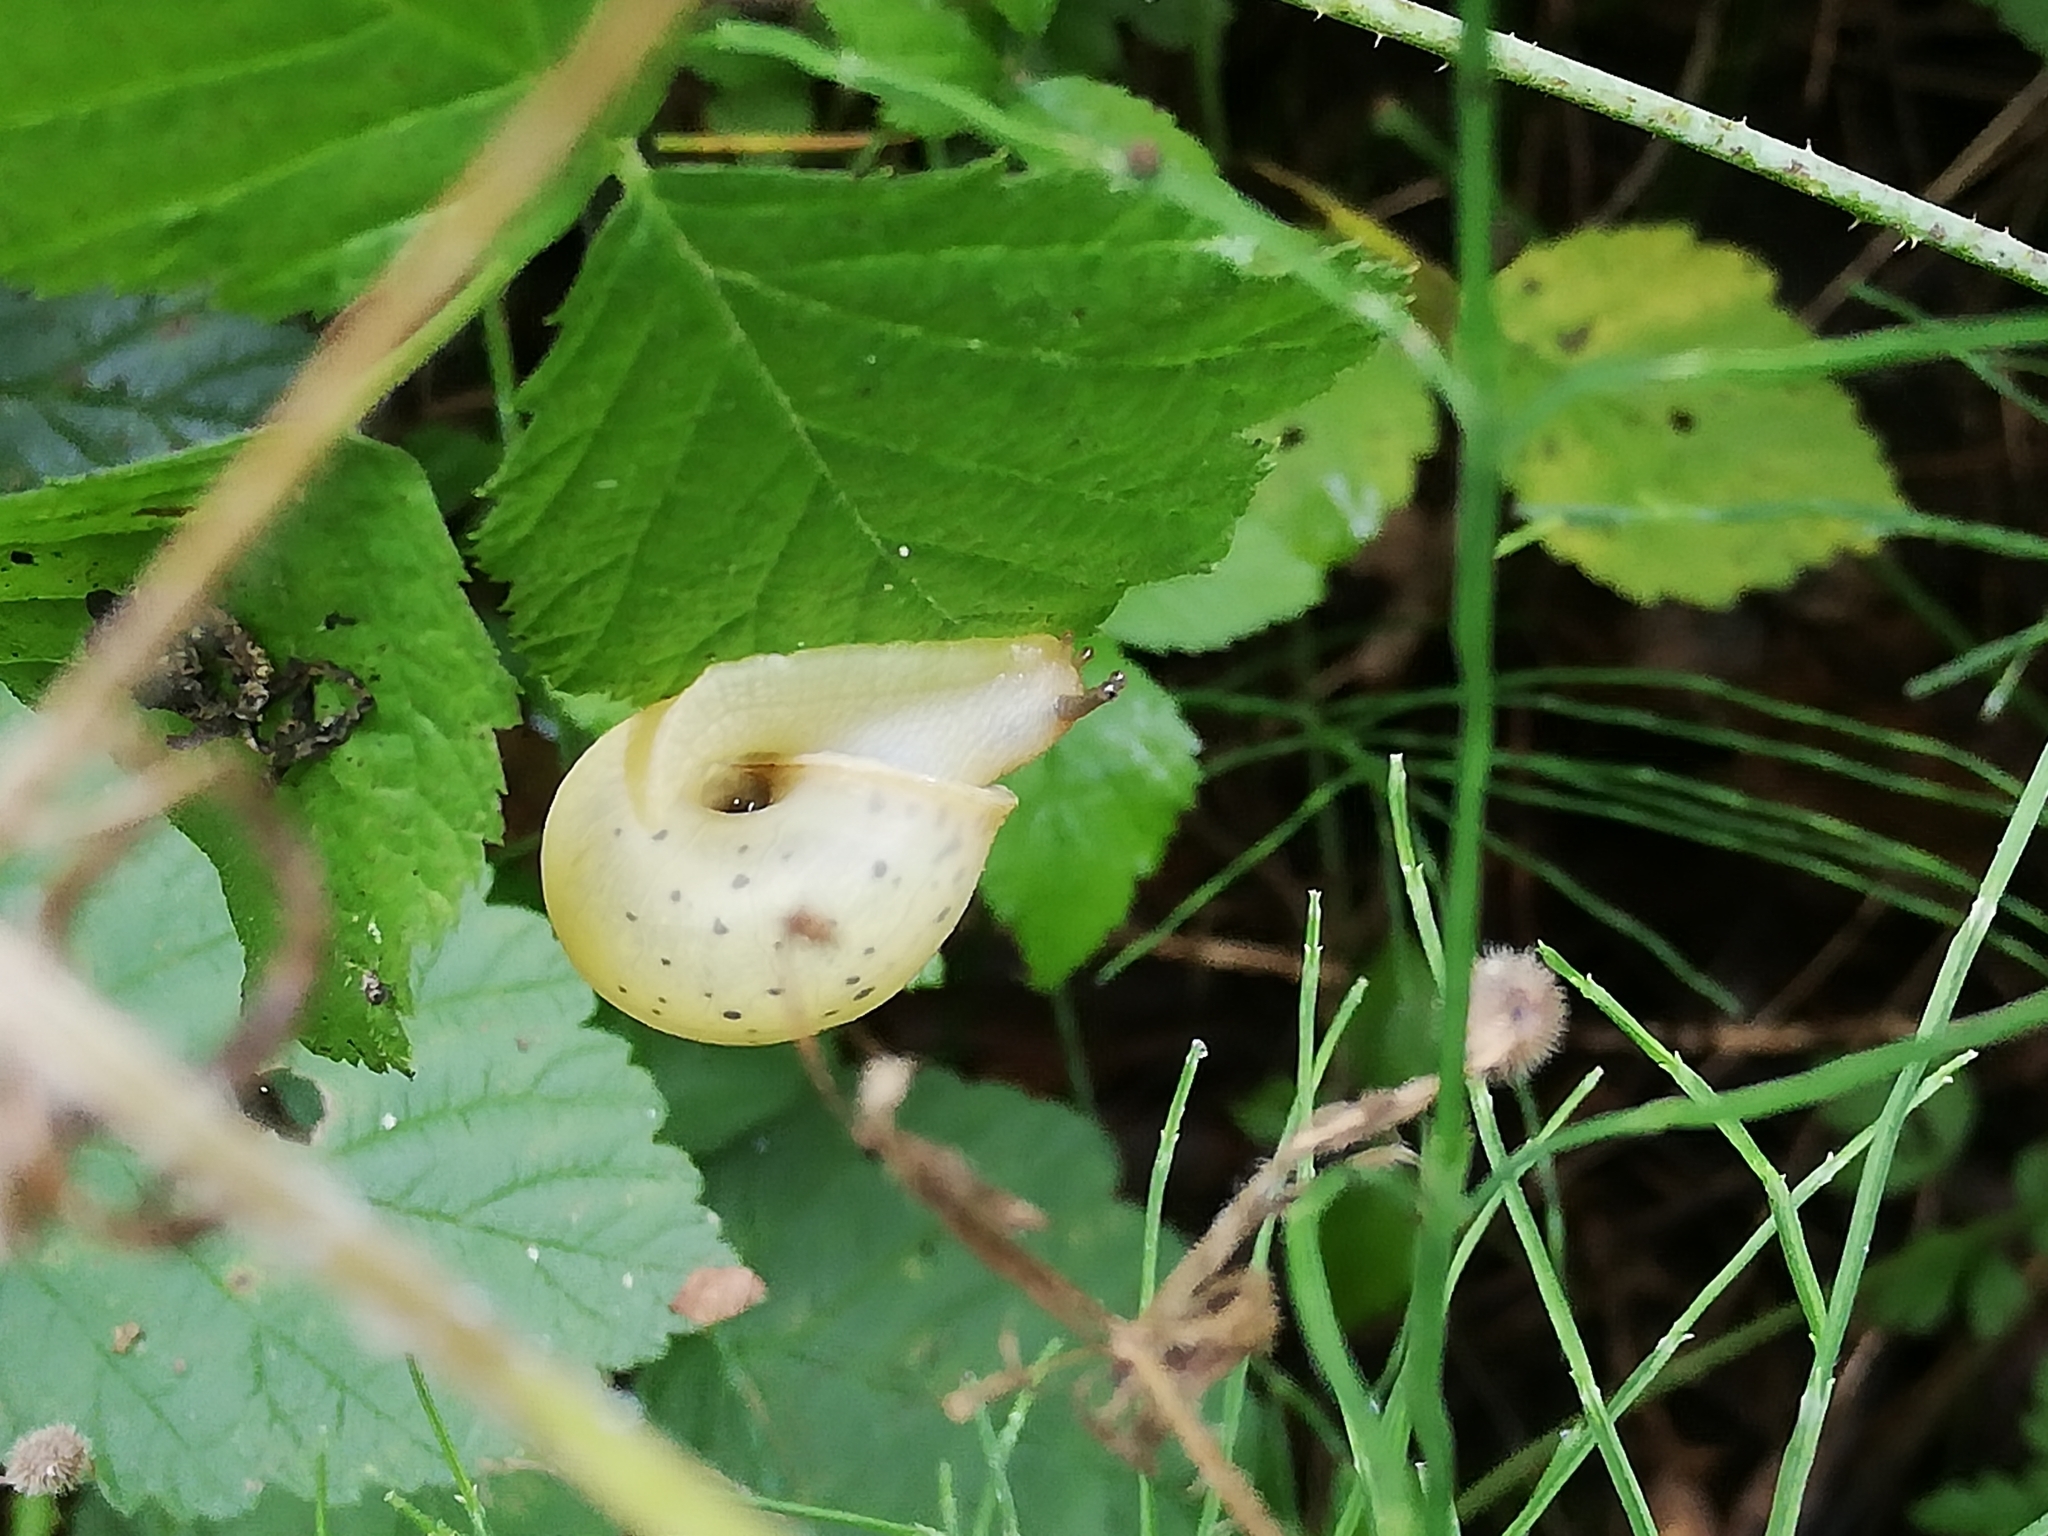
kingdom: Animalia
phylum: Mollusca
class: Gastropoda
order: Stylommatophora
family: Camaenidae
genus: Fruticicola
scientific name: Fruticicola fruticum
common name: Bush snail
